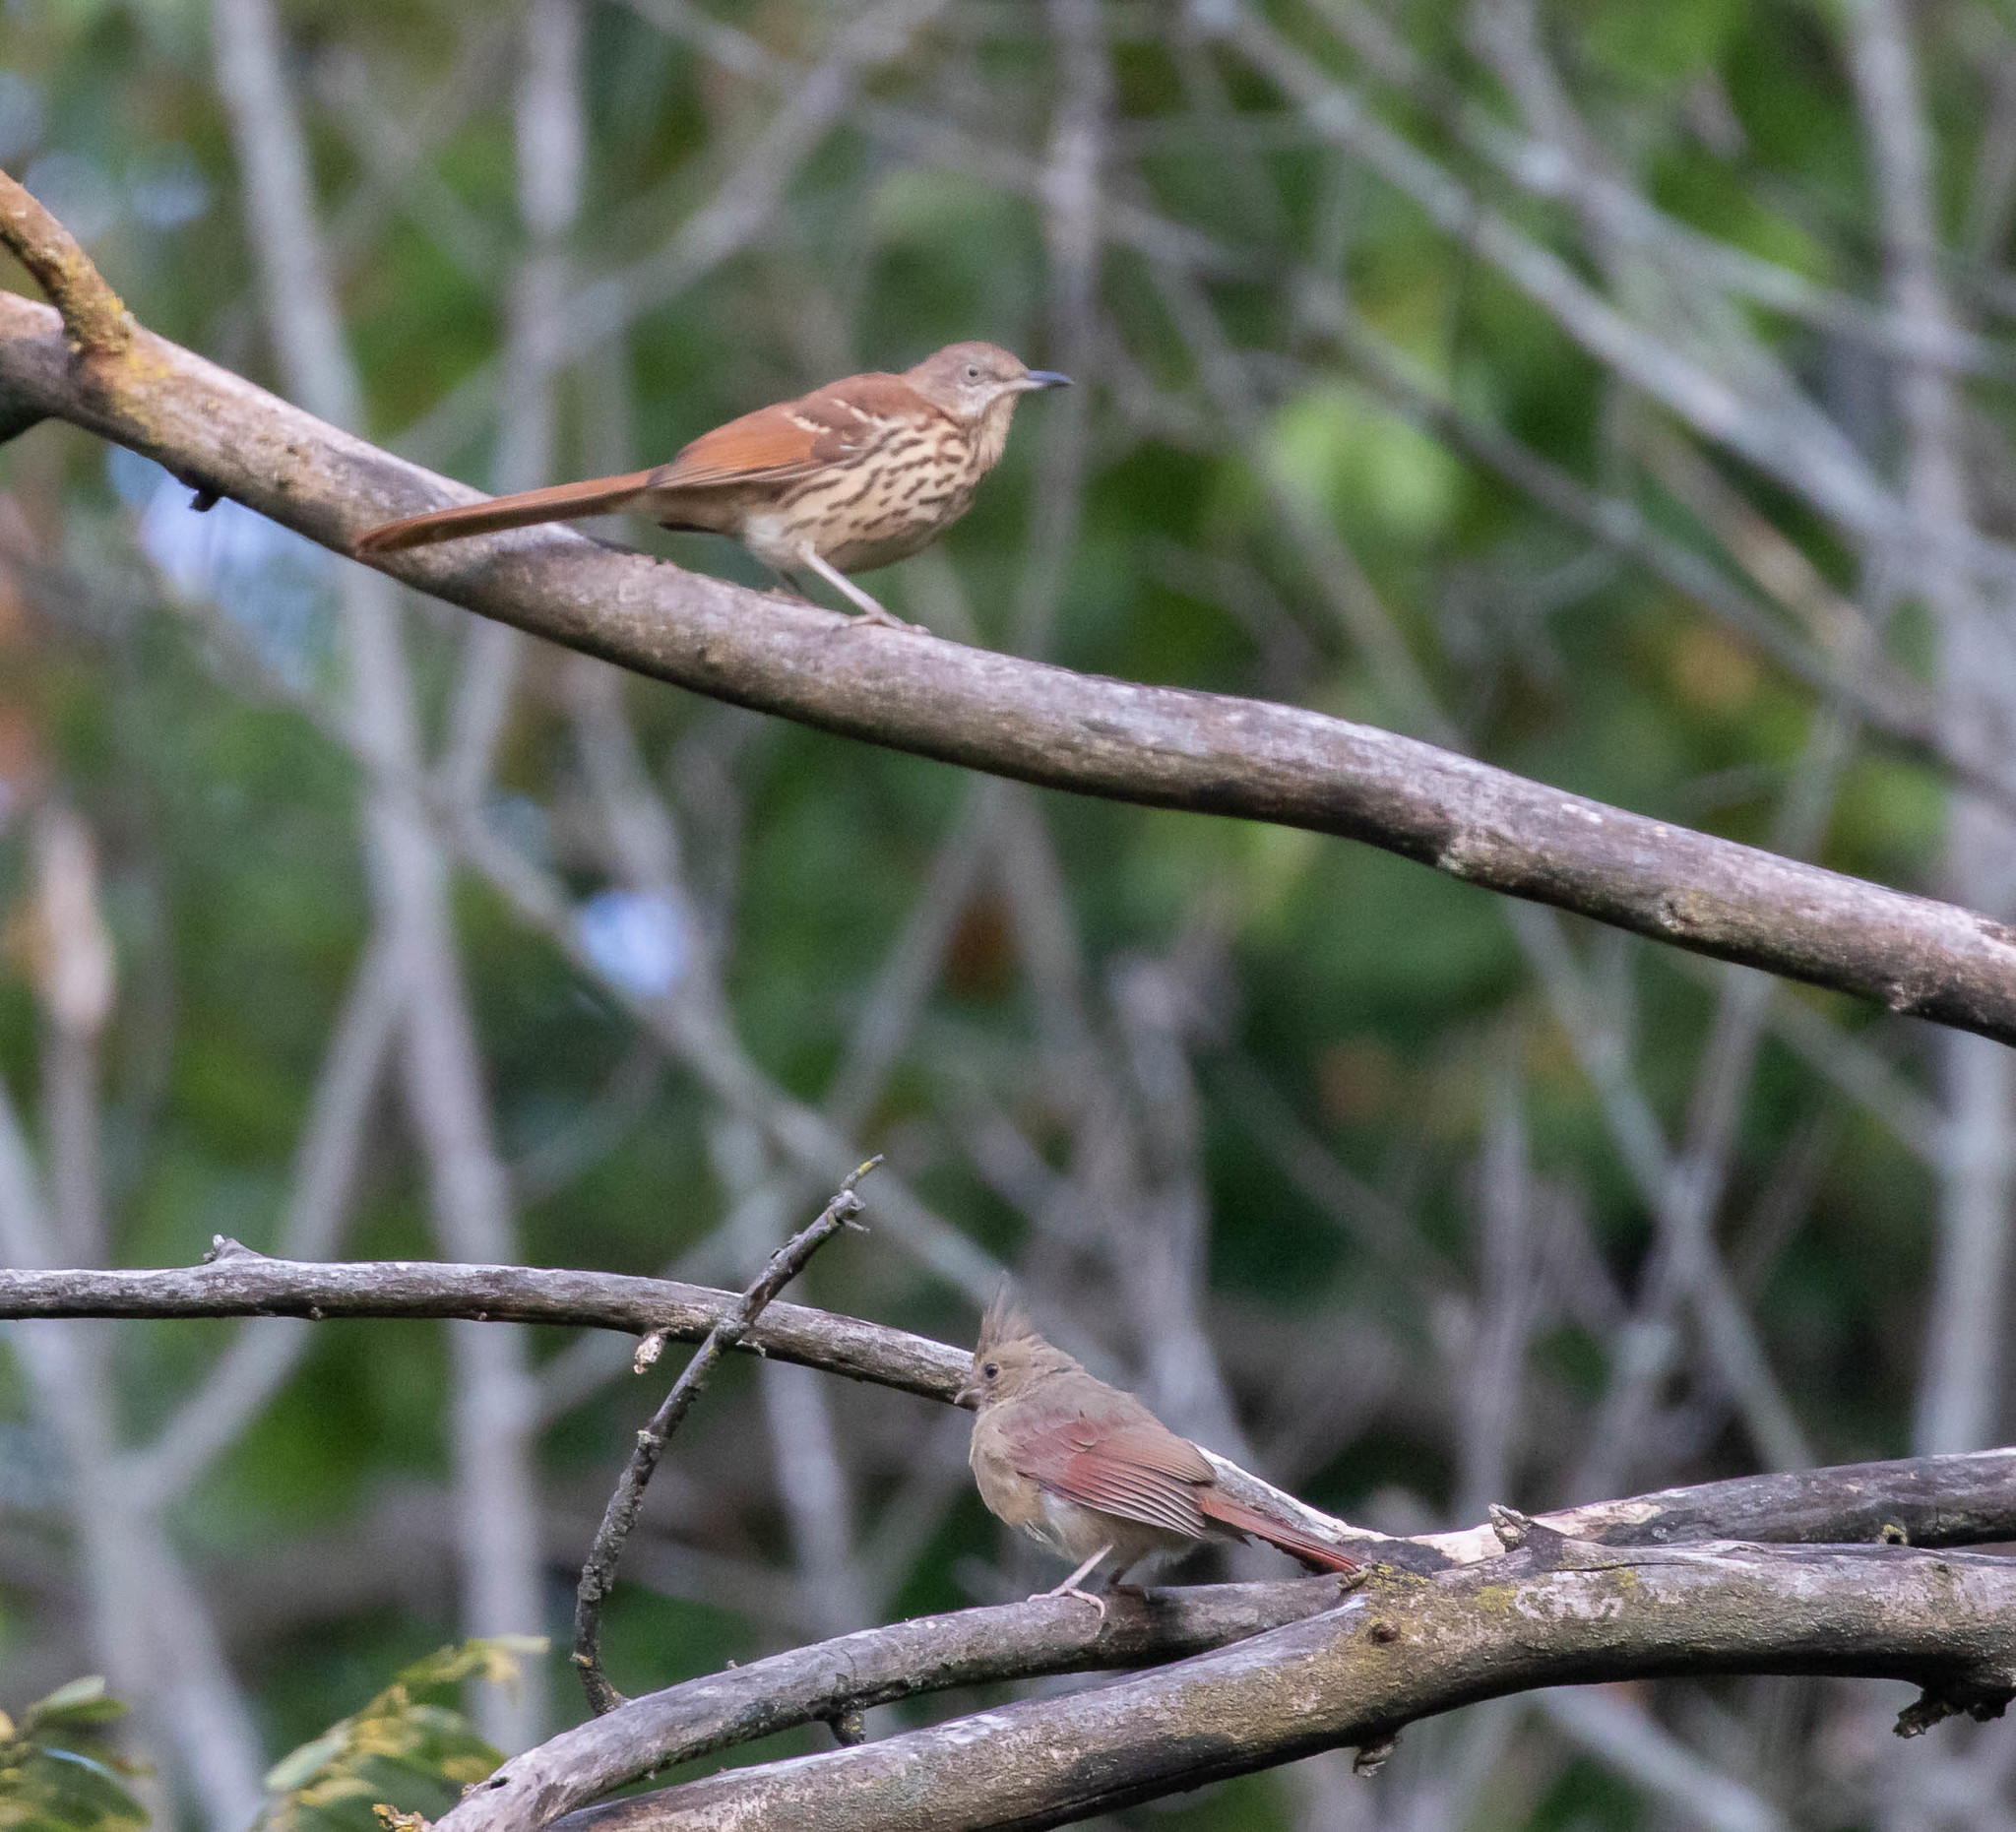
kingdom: Animalia
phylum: Chordata
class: Aves
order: Passeriformes
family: Mimidae
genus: Toxostoma
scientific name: Toxostoma rufum
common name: Brown thrasher
